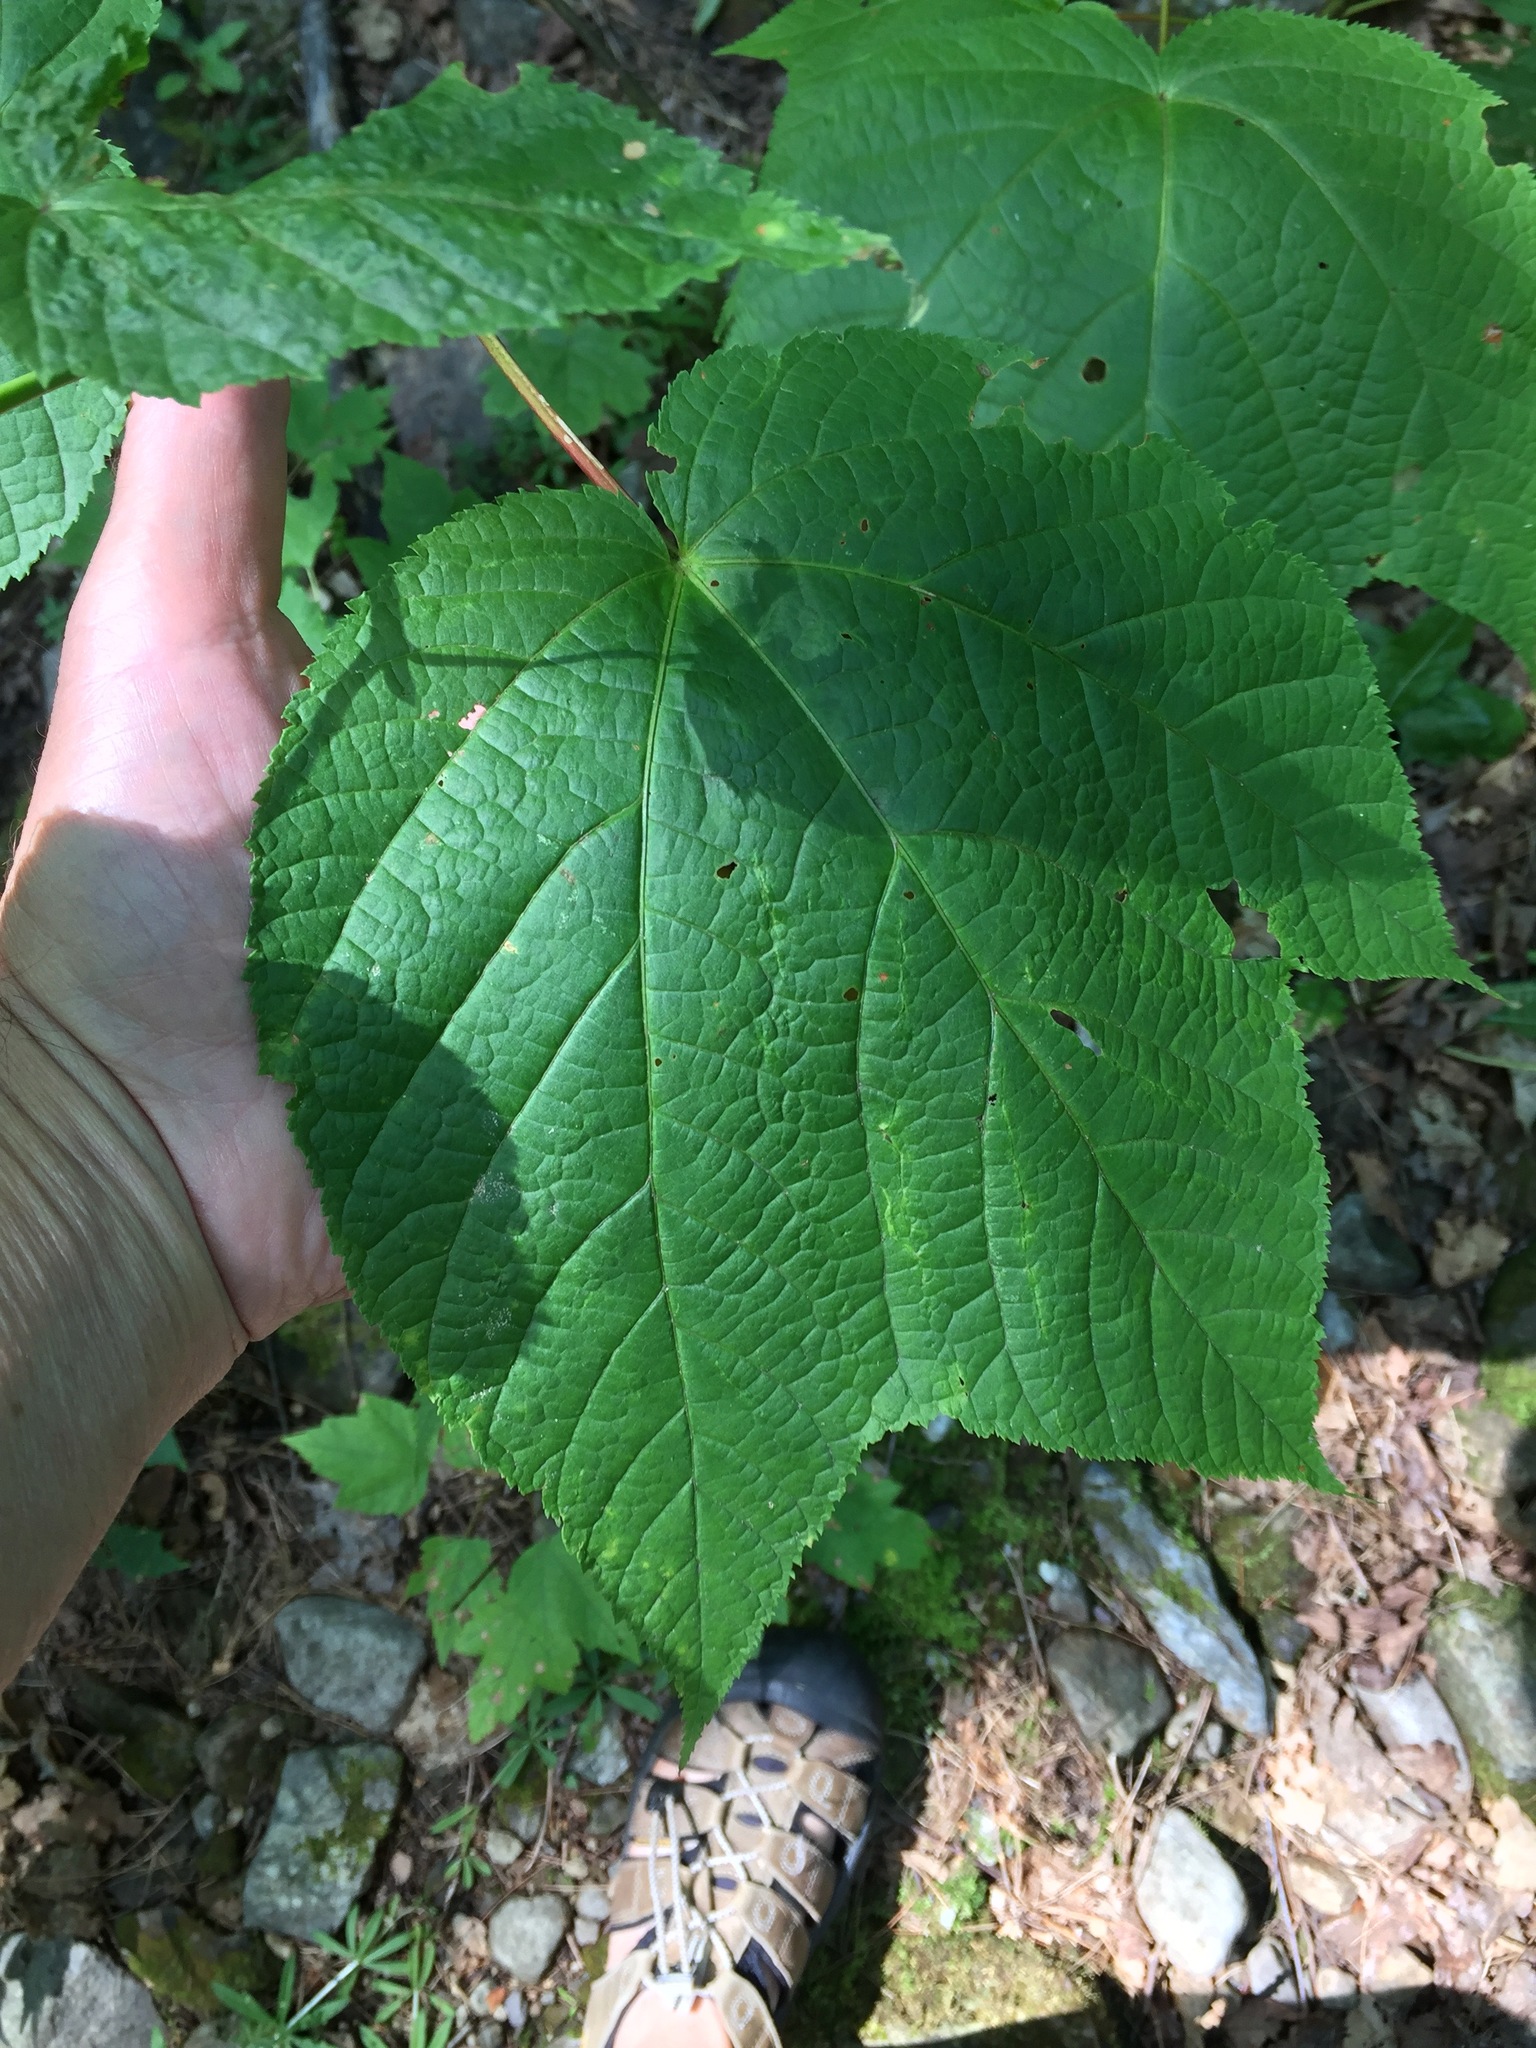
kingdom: Plantae
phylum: Tracheophyta
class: Magnoliopsida
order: Sapindales
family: Sapindaceae
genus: Acer
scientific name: Acer pensylvanicum
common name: Moosewood
